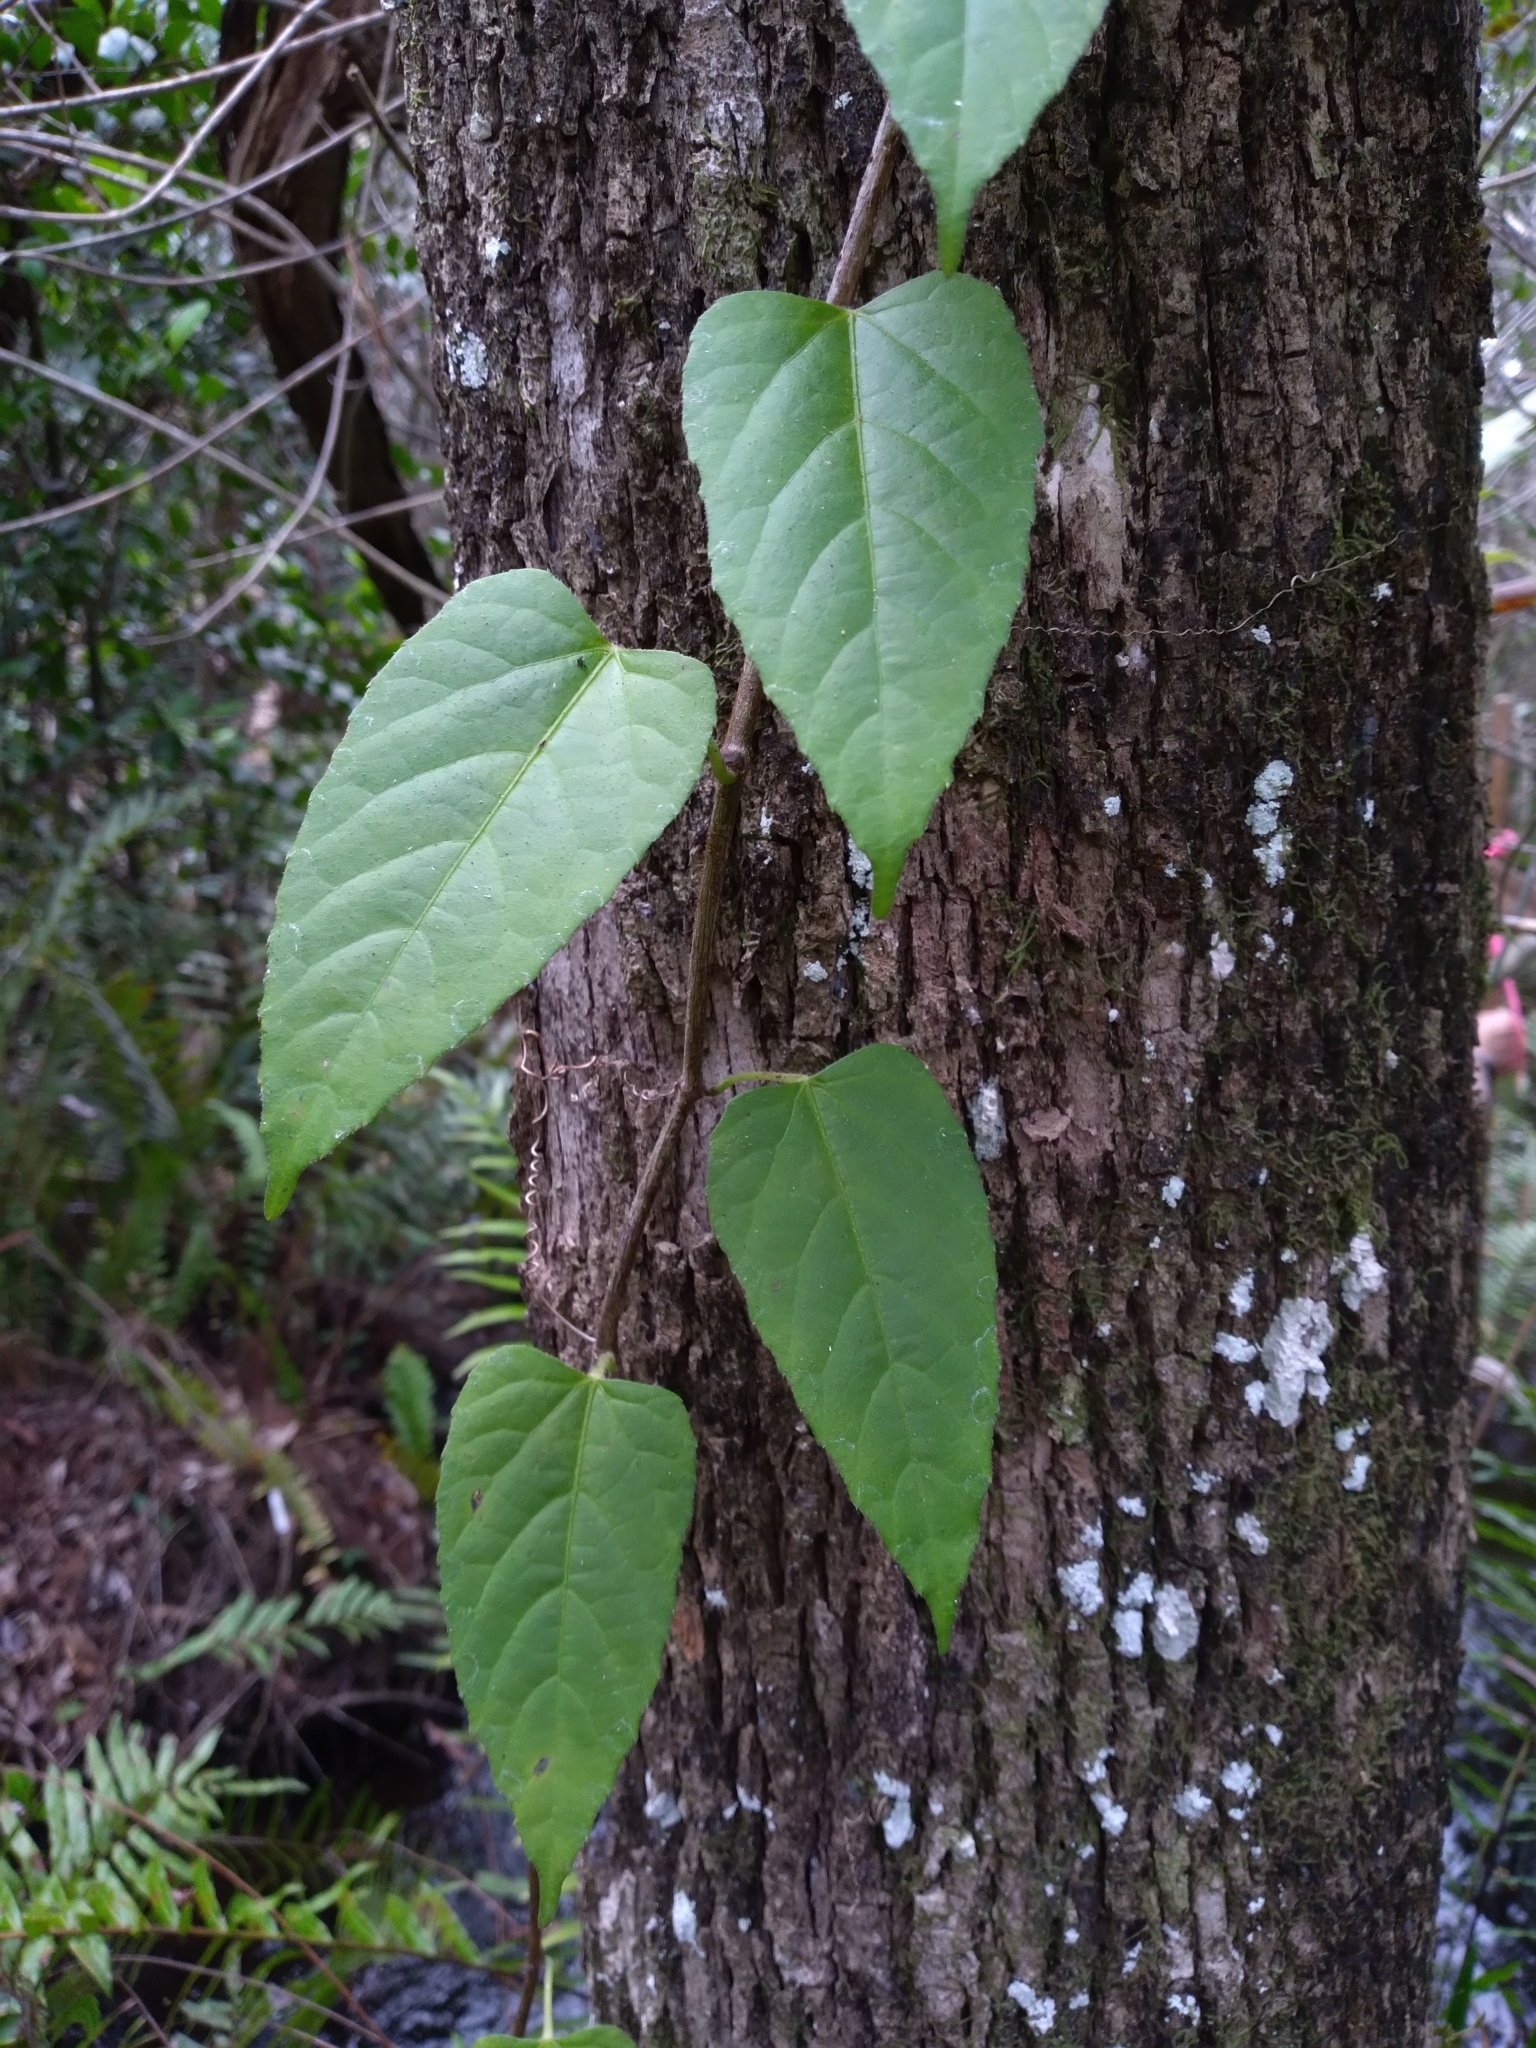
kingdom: Plantae
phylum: Tracheophyta
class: Magnoliopsida
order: Vitales
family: Vitaceae
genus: Cissus
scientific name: Cissus verticillata
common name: Princess vine
